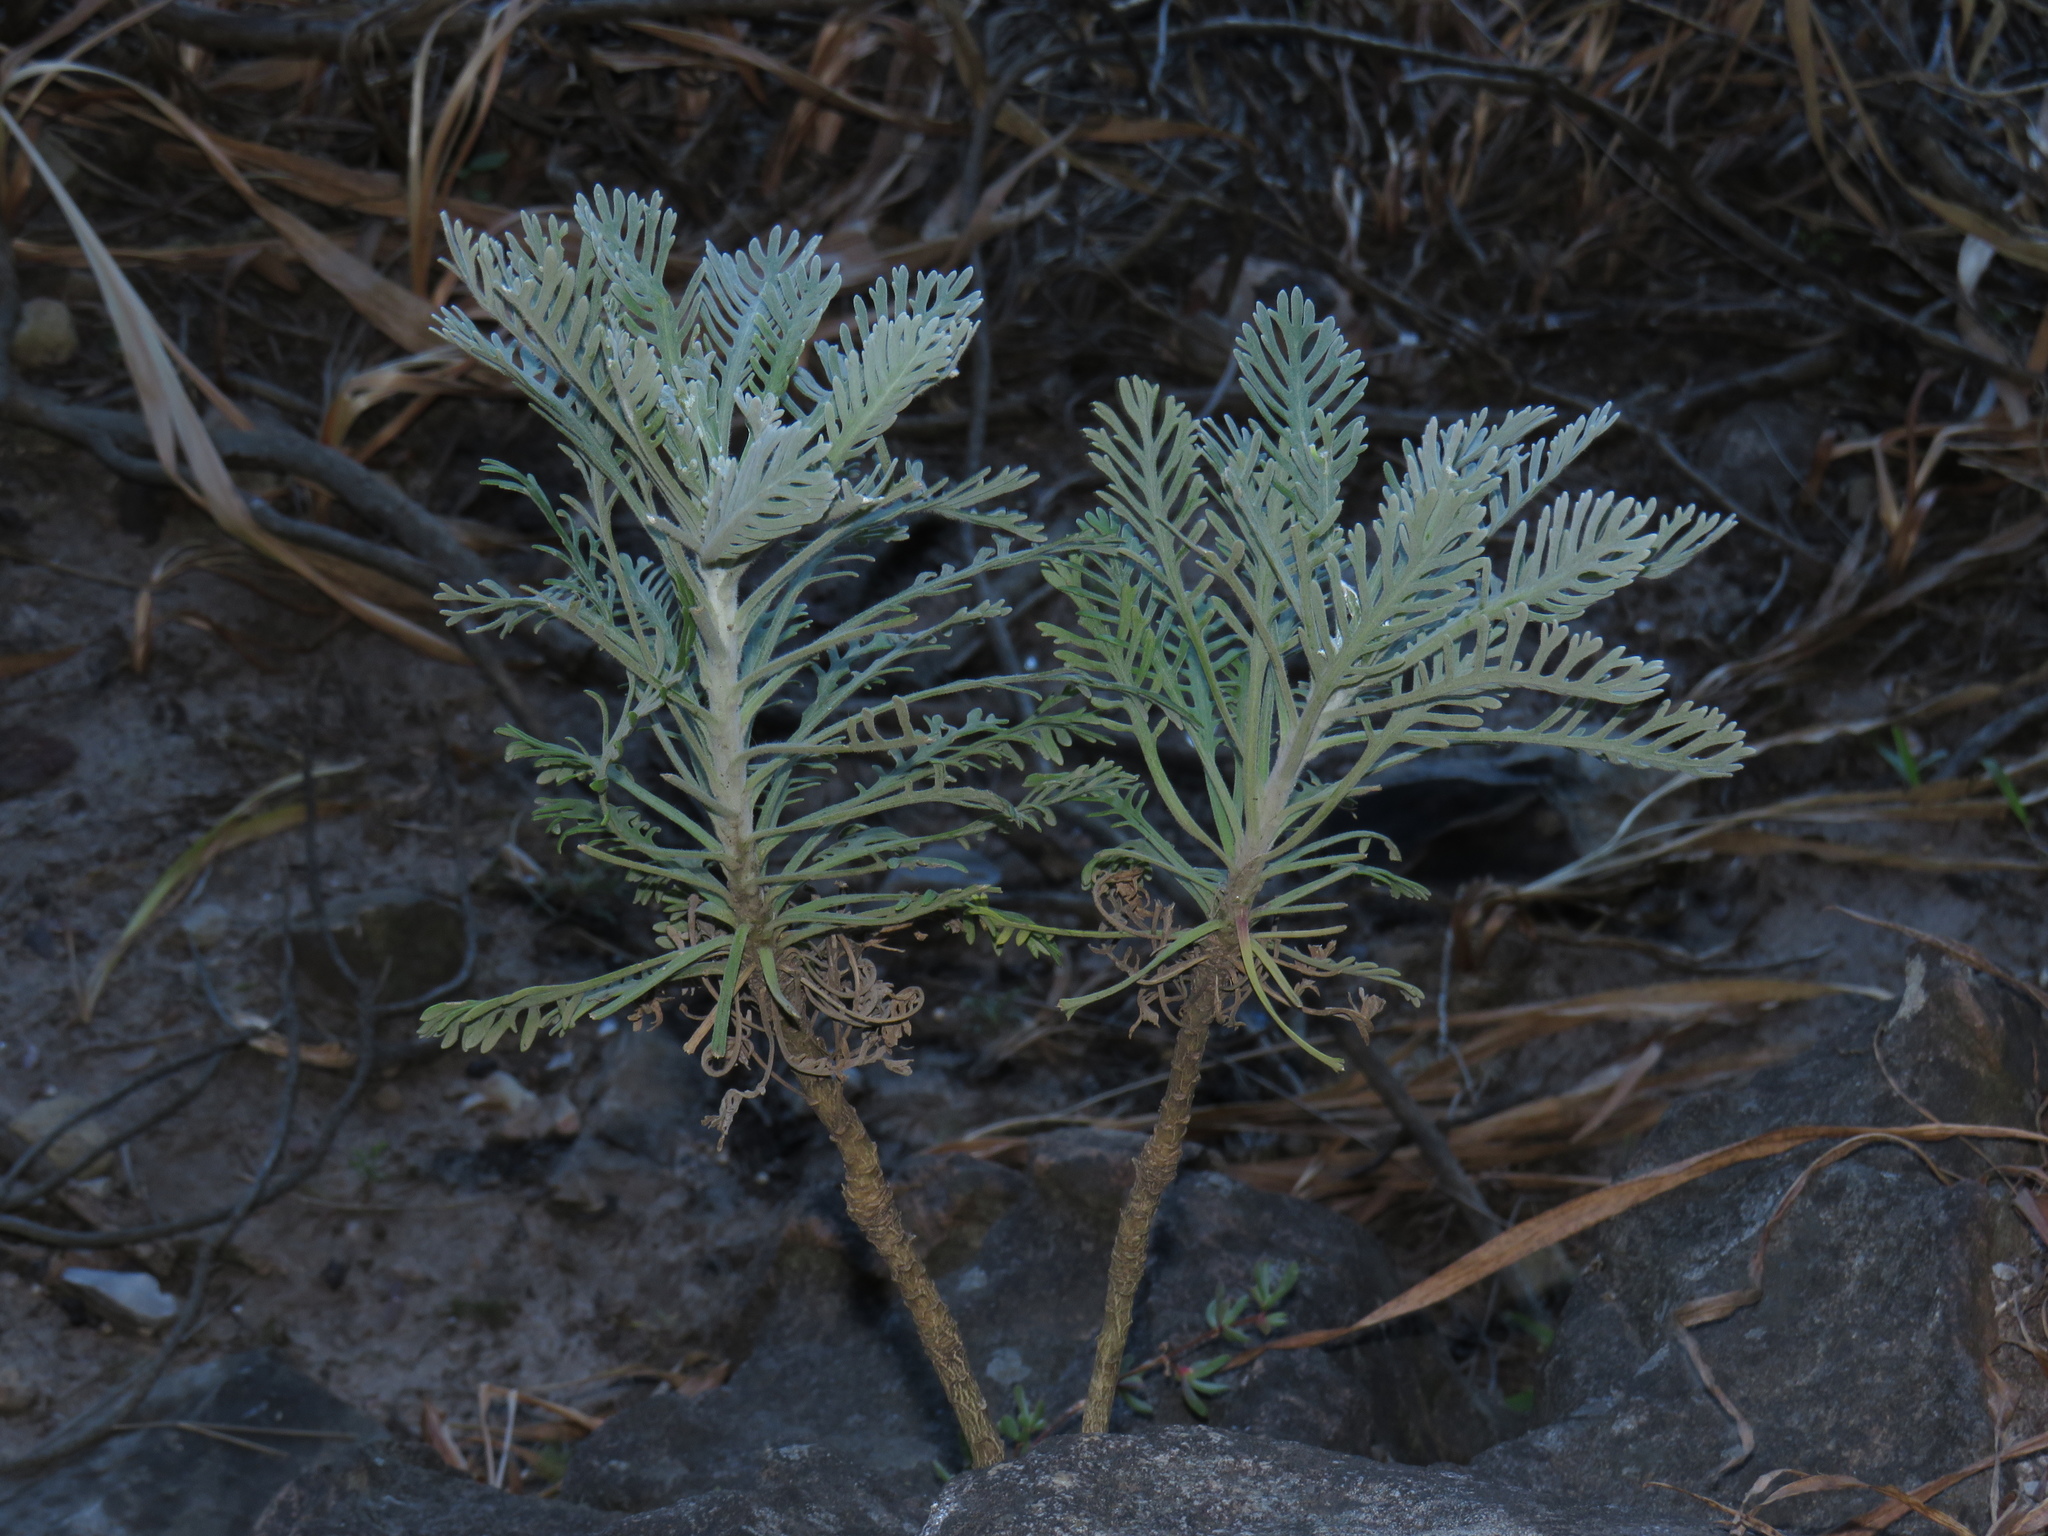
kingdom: Plantae
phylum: Tracheophyta
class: Magnoliopsida
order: Asterales
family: Asteraceae
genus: Euryops
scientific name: Euryops pectinatus
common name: Gray-leaf euryops
